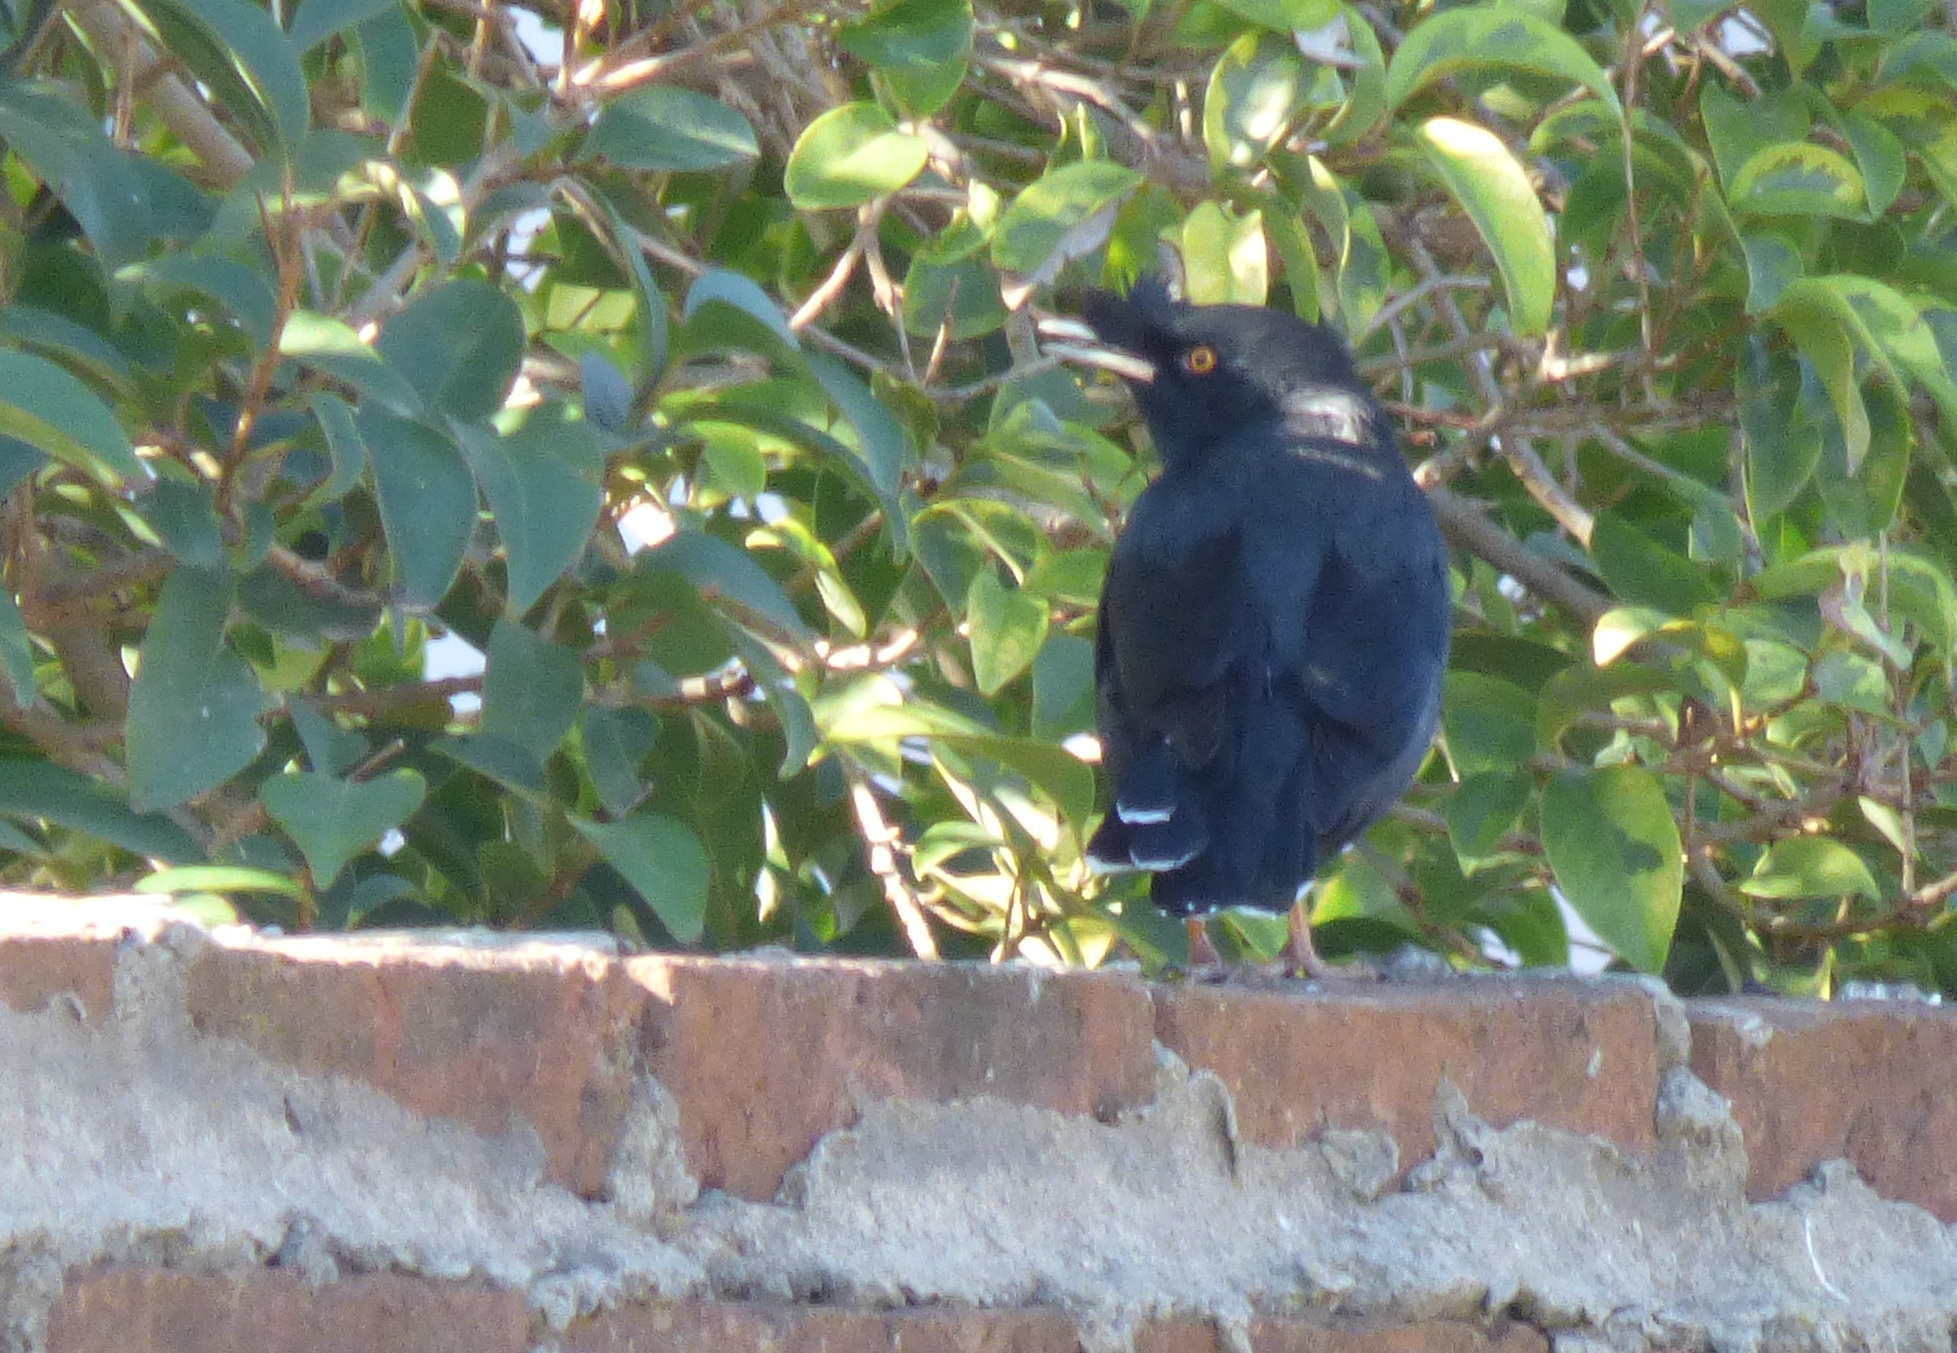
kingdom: Animalia
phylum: Chordata
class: Aves
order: Passeriformes
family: Sturnidae
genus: Acridotheres
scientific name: Acridotheres cristatellus
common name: Crested myna
